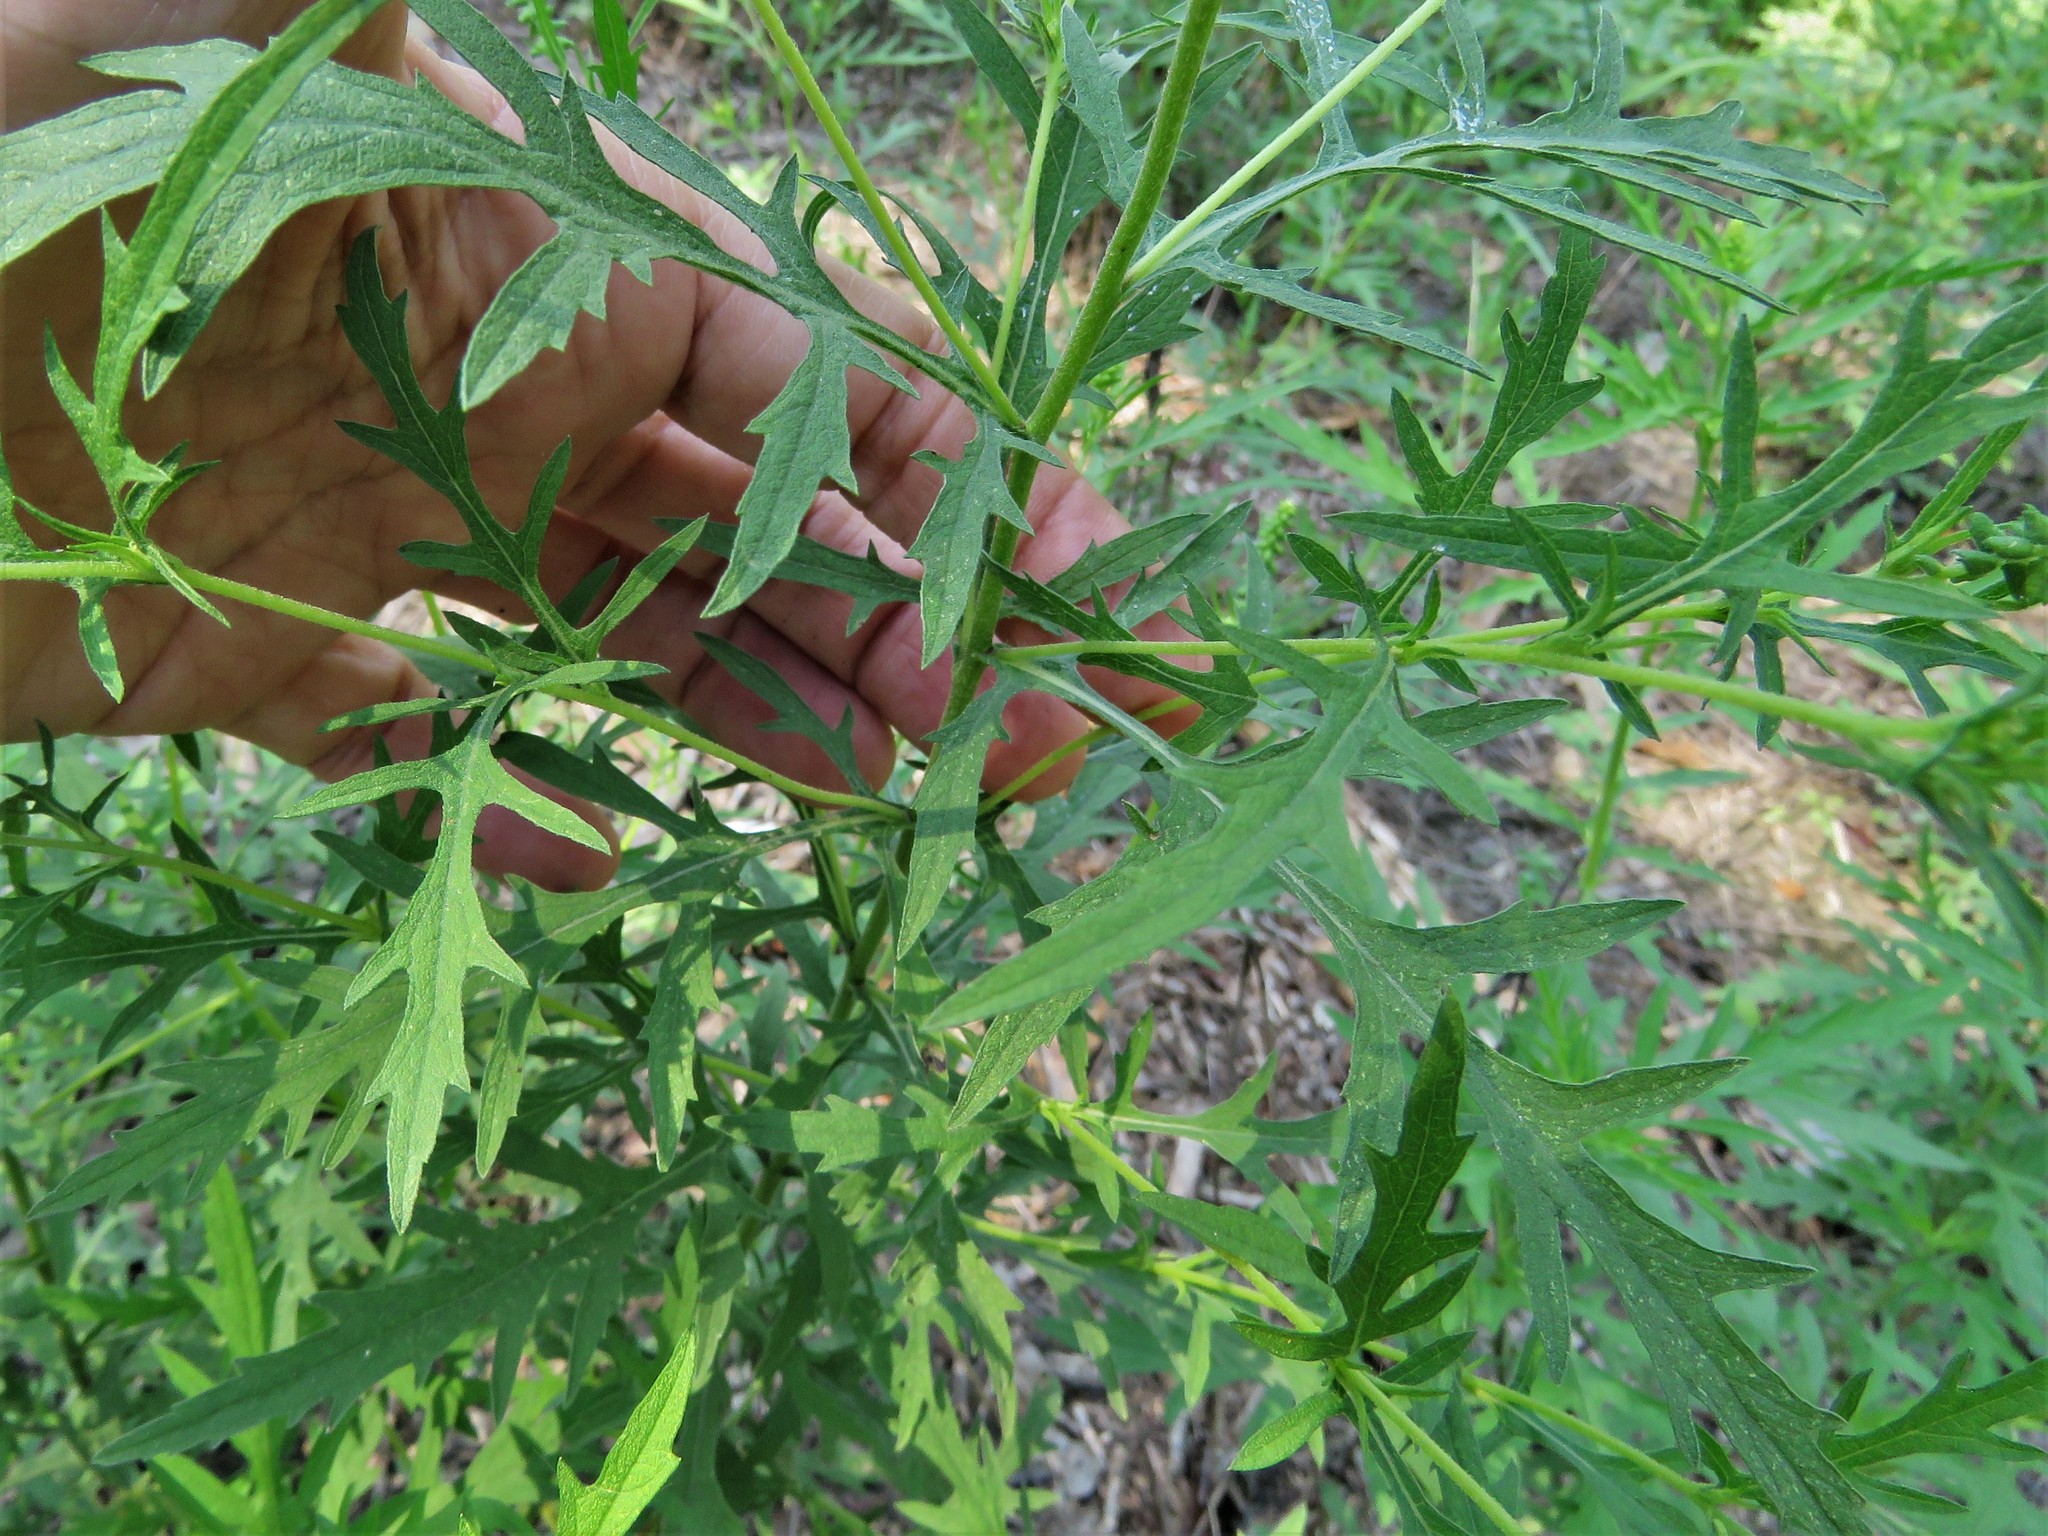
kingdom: Plantae
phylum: Tracheophyta
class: Magnoliopsida
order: Asterales
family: Asteraceae
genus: Ambrosia
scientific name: Ambrosia psilostachya
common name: Perennial ragweed
